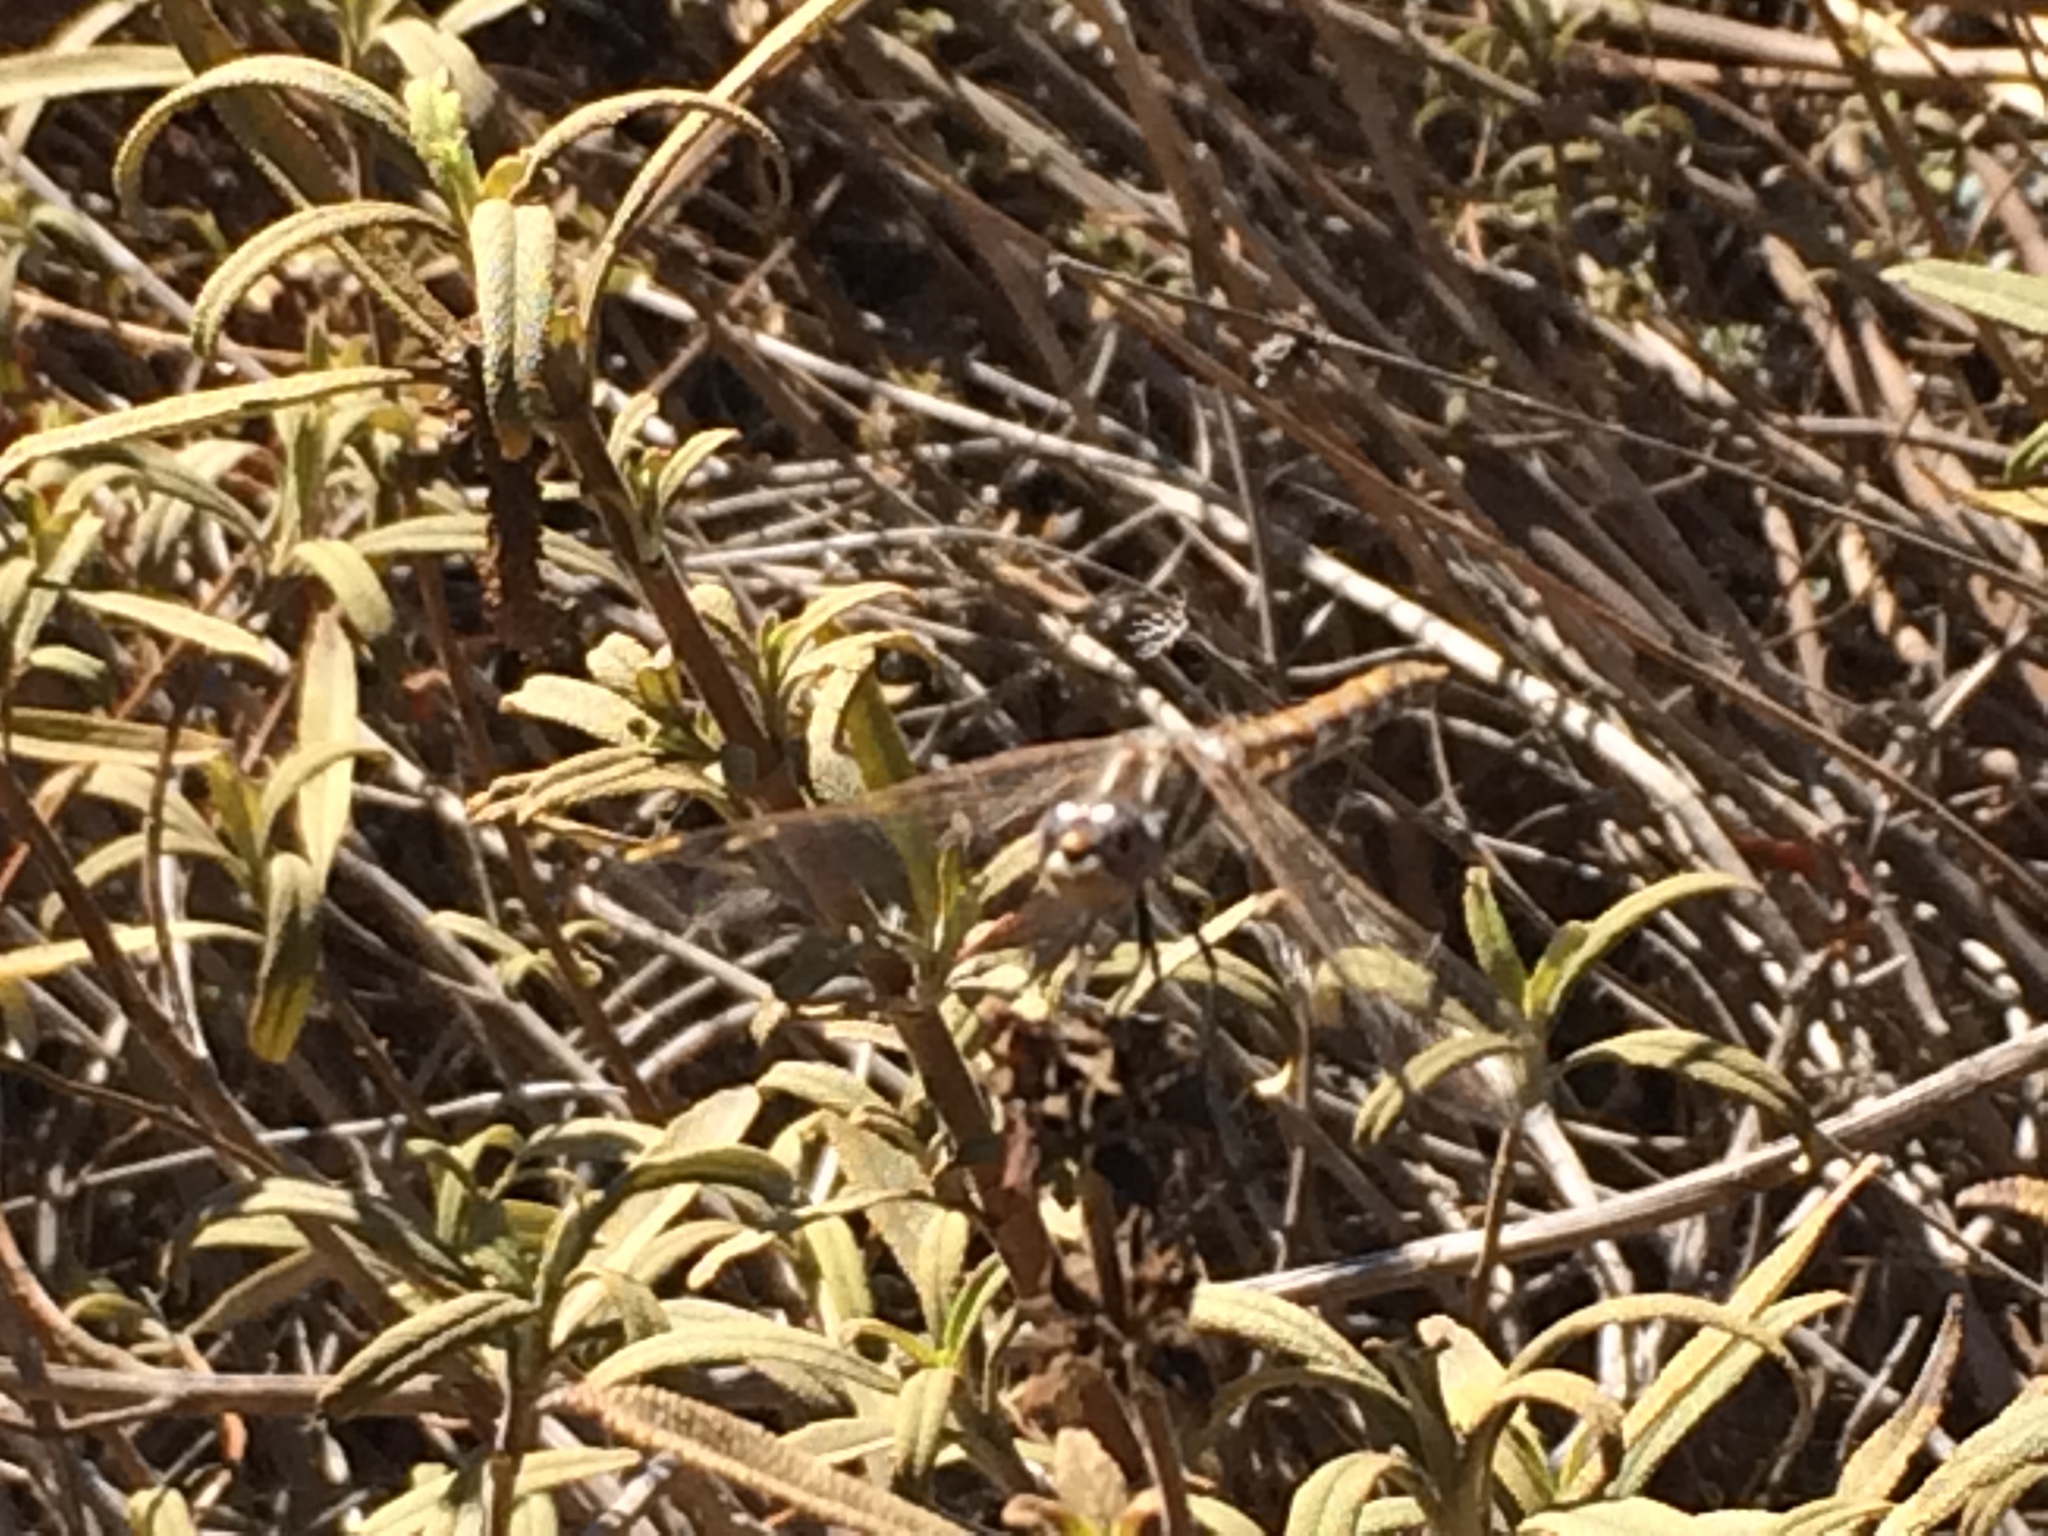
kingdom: Animalia
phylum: Arthropoda
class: Insecta
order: Odonata
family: Libellulidae
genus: Sympetrum
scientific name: Sympetrum corruptum
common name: Variegated meadowhawk
